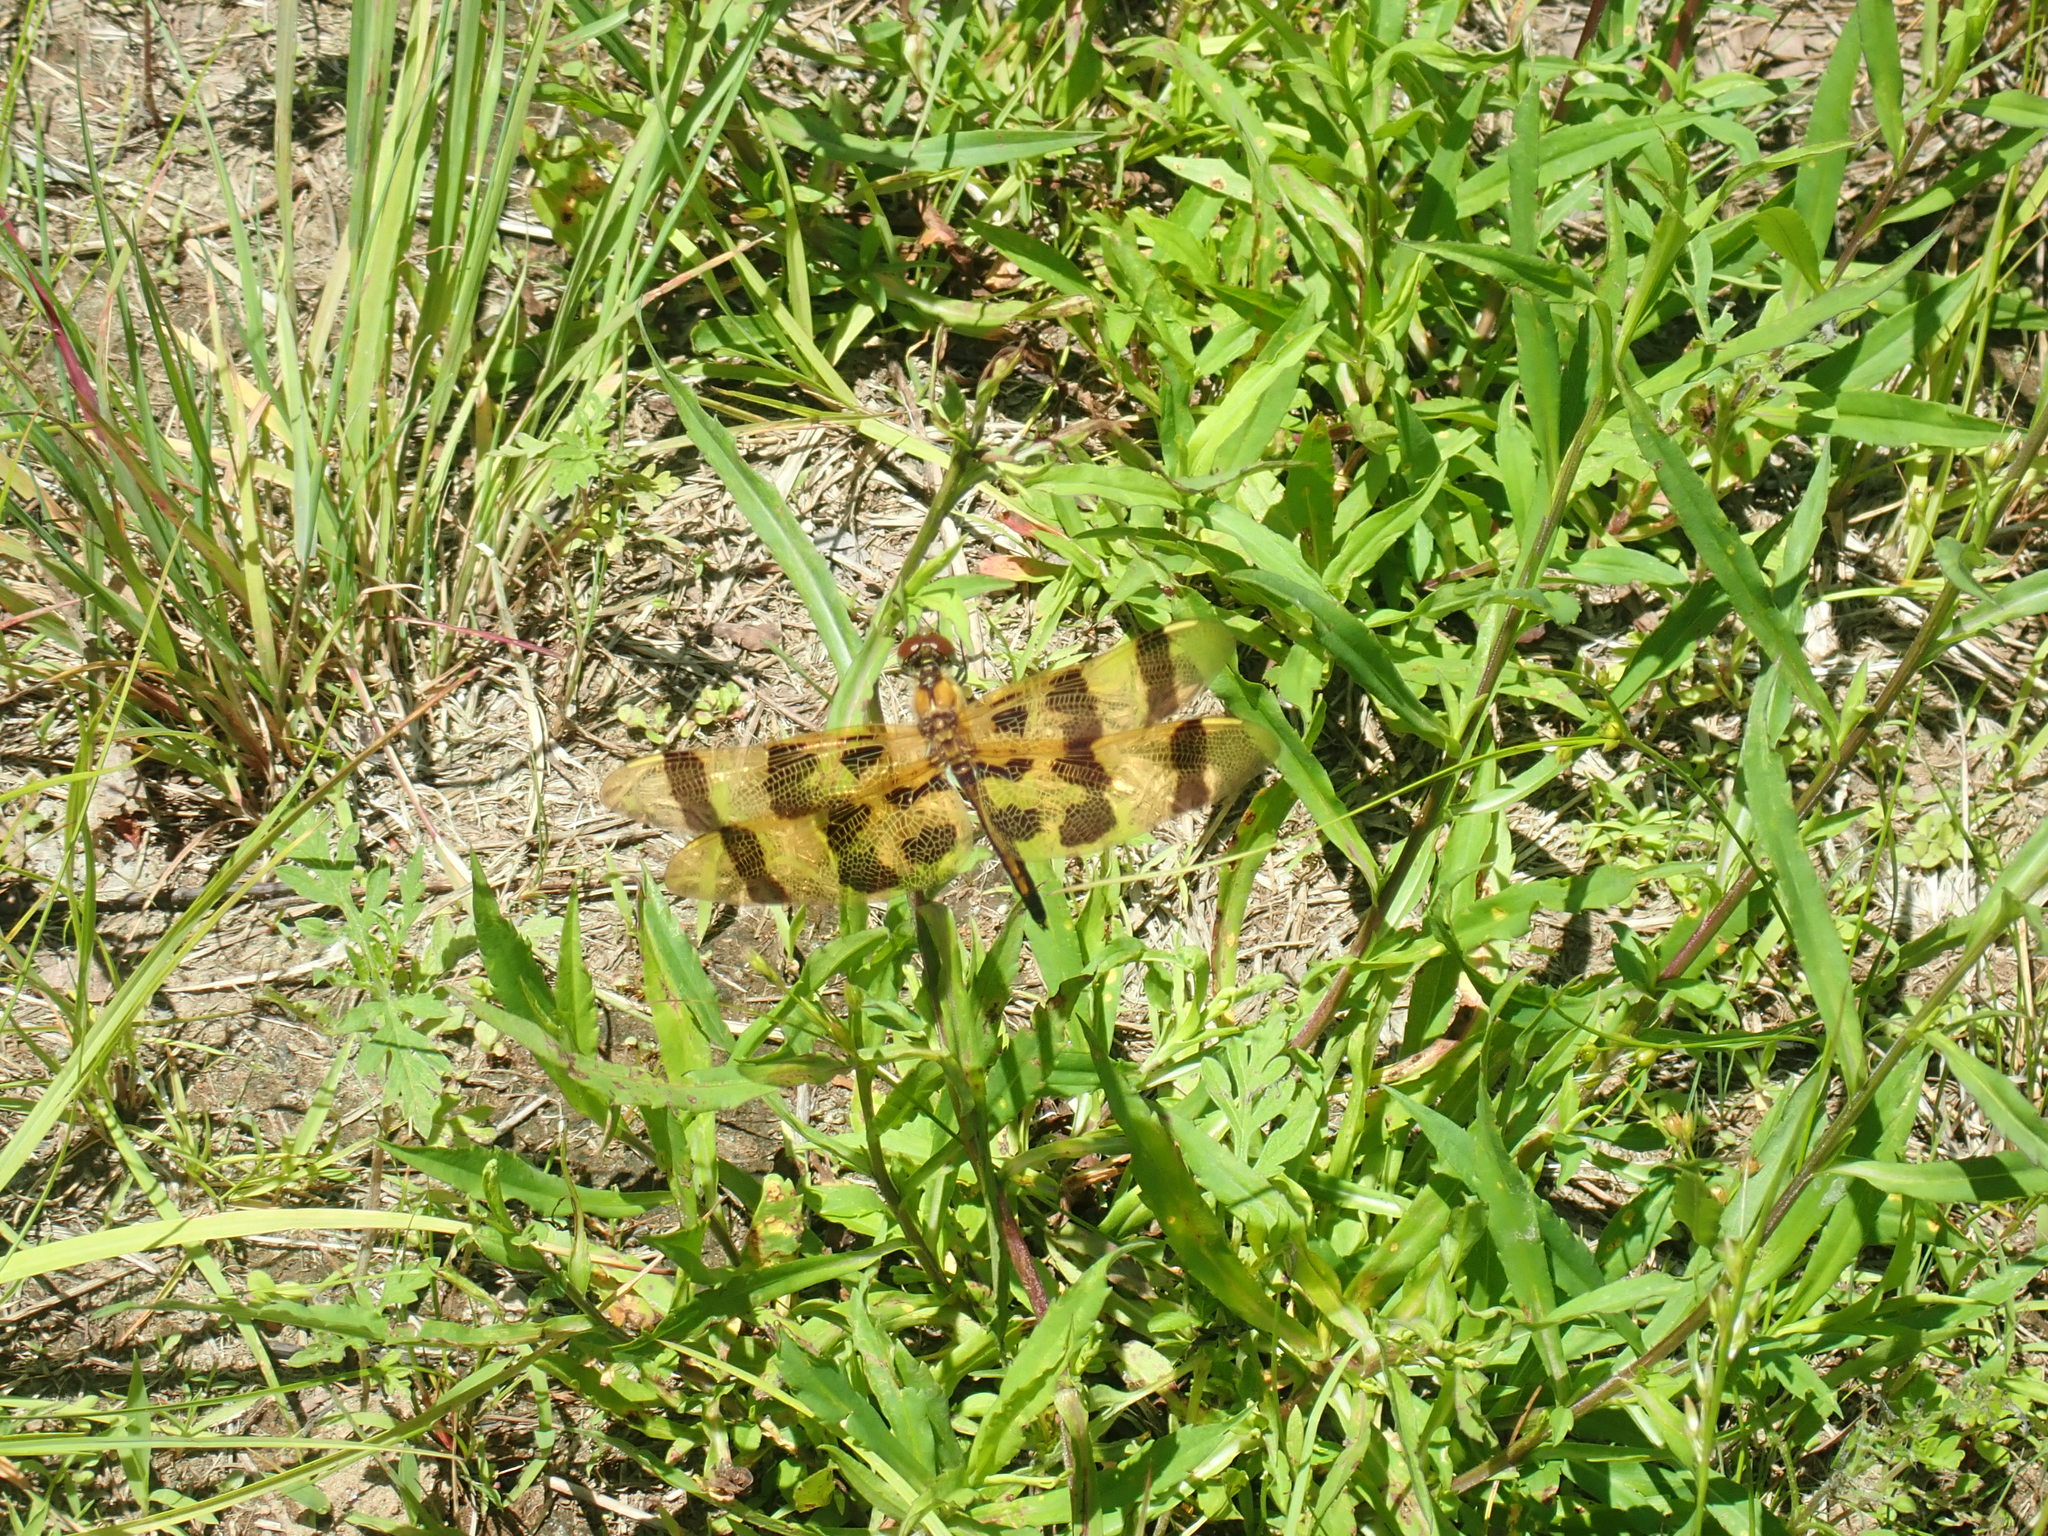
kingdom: Animalia
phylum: Arthropoda
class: Insecta
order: Odonata
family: Libellulidae
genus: Celithemis
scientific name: Celithemis eponina
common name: Halloween pennant
